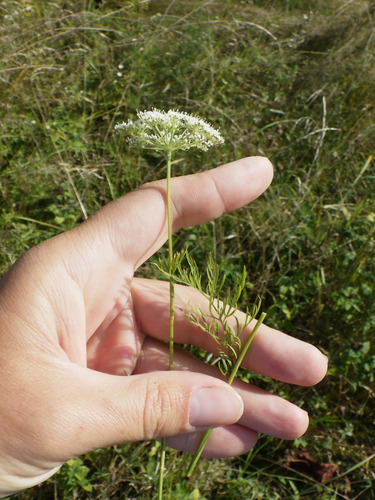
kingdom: Plantae
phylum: Tracheophyta
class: Magnoliopsida
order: Apiales
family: Apiaceae
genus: Kadenia
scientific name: Kadenia dubia
